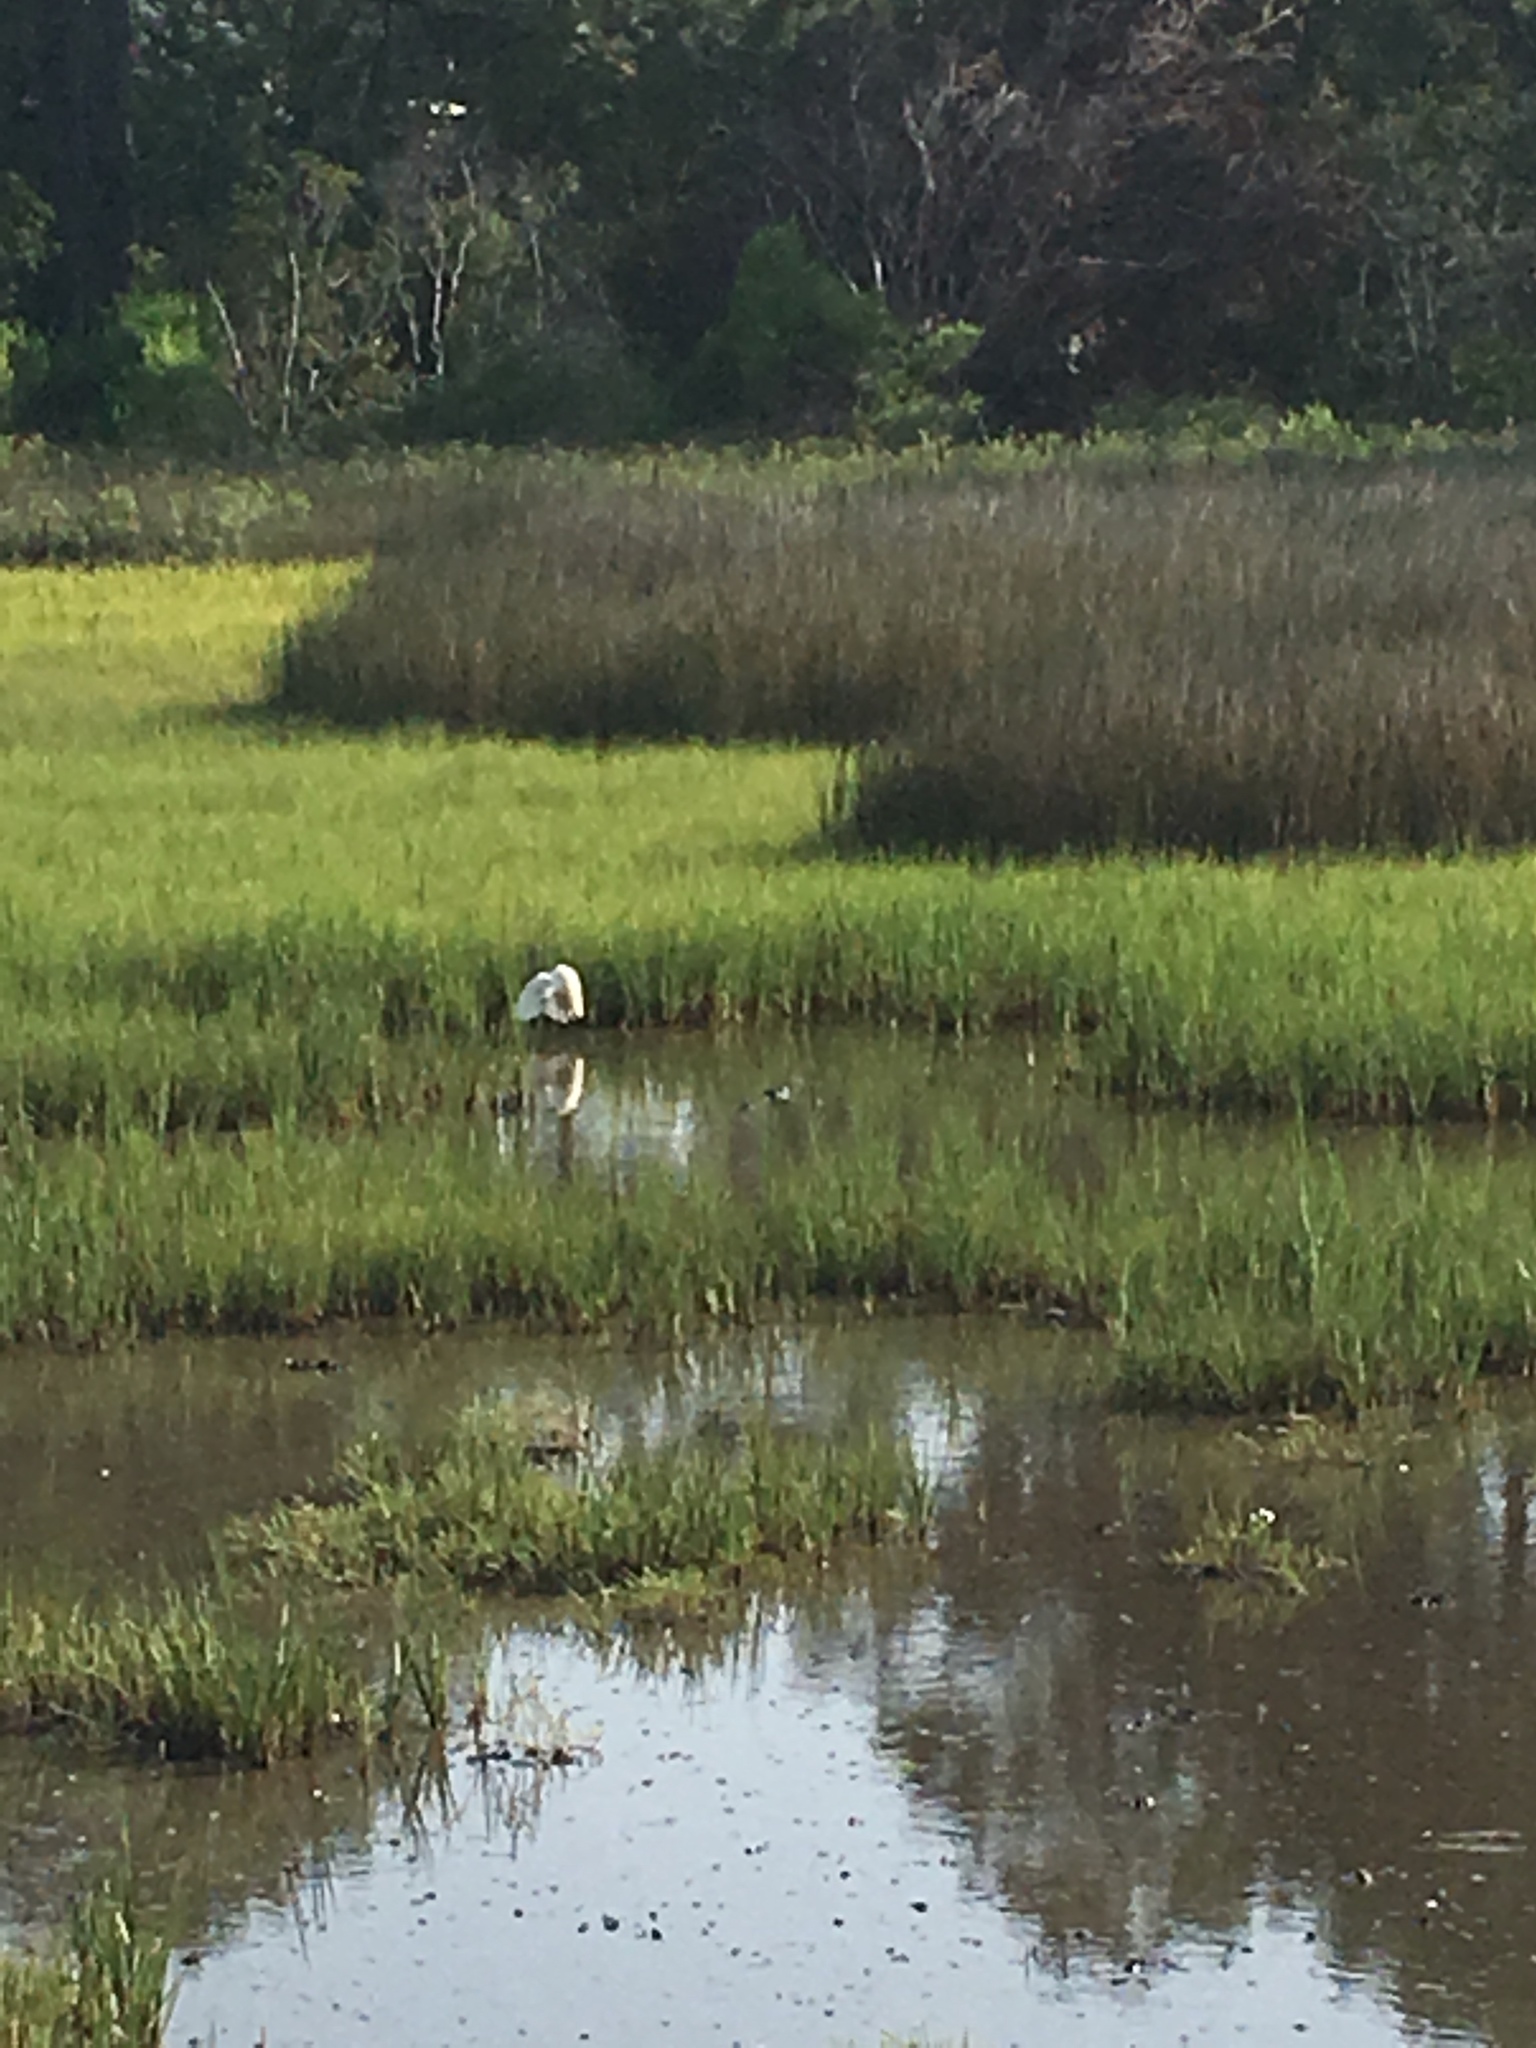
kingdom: Animalia
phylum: Chordata
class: Aves
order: Pelecaniformes
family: Ardeidae
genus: Egretta
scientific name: Egretta thula
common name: Snowy egret
